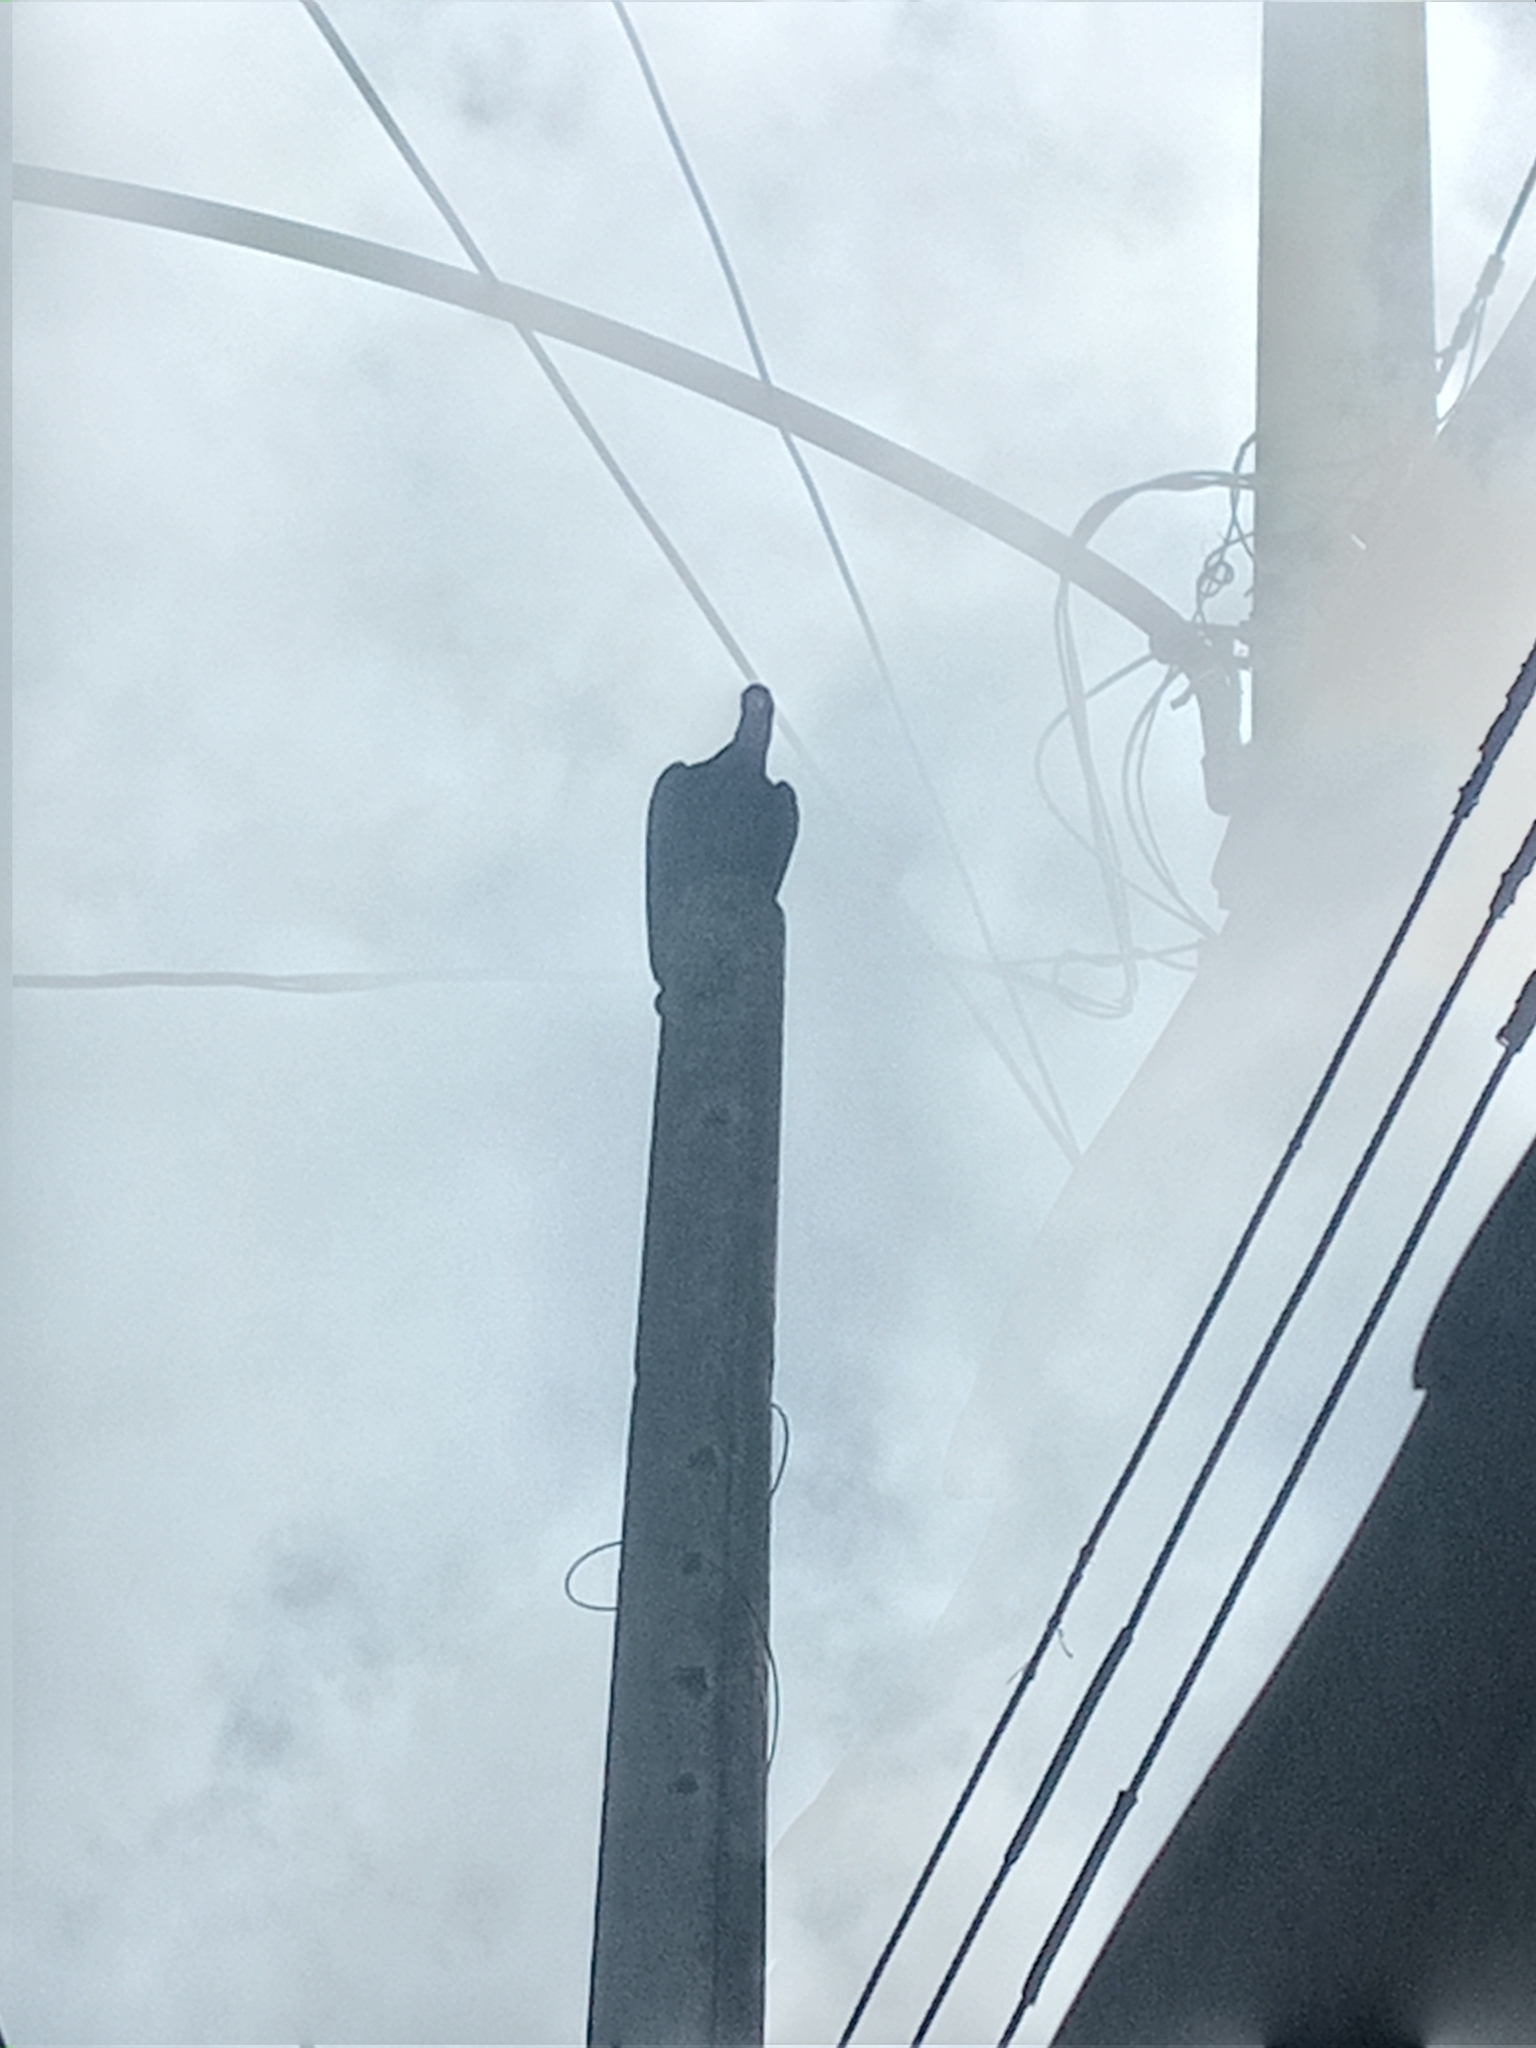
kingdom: Animalia
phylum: Chordata
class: Aves
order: Accipitriformes
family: Cathartidae
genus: Coragyps
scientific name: Coragyps atratus
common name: Black vulture
